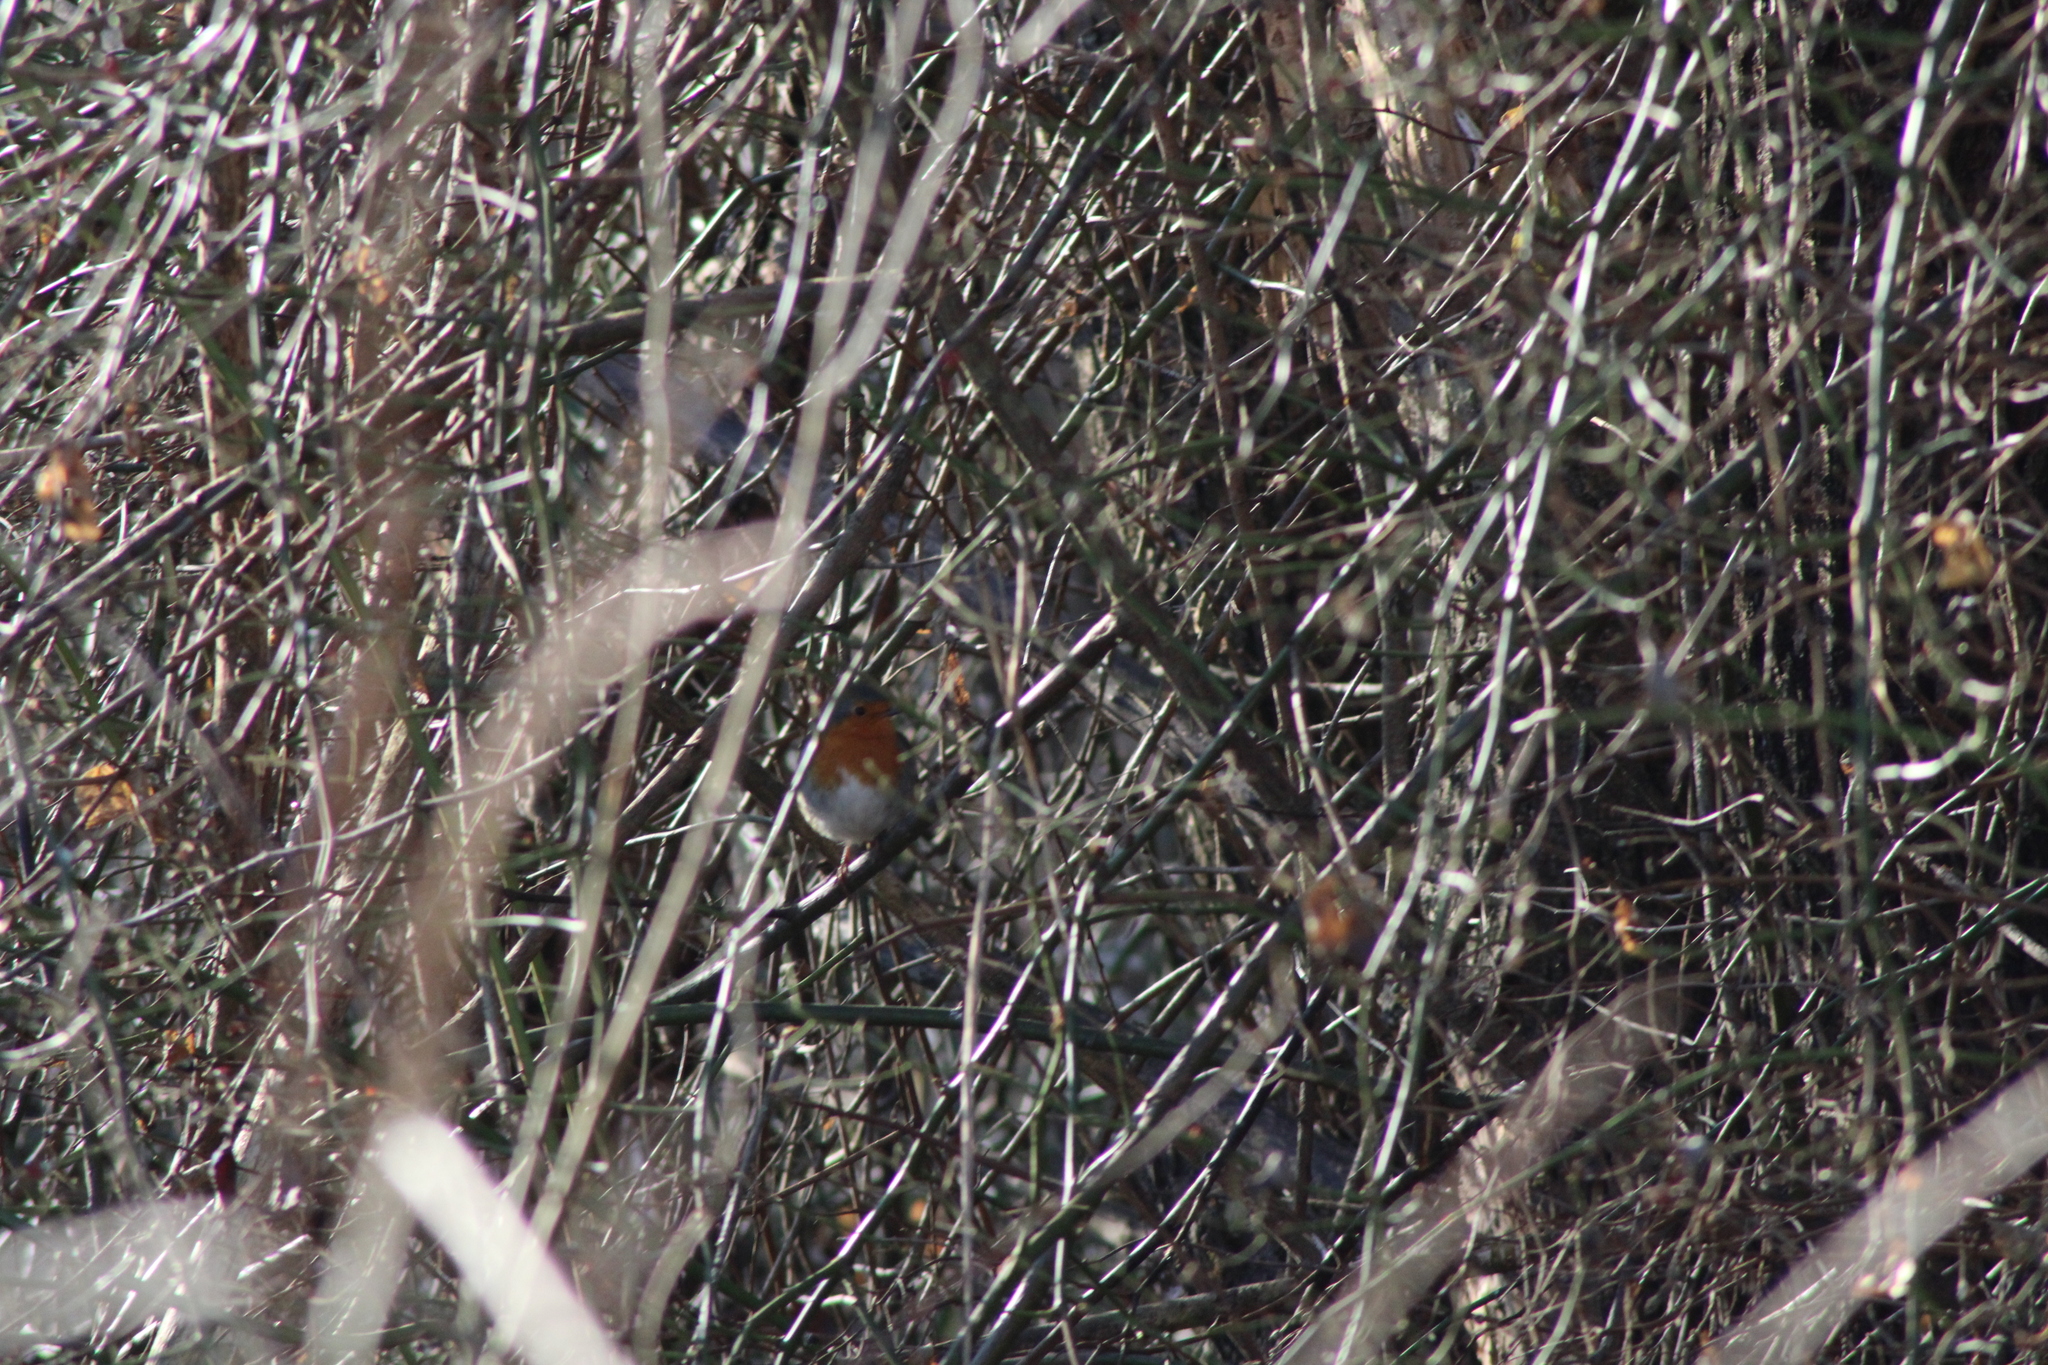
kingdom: Animalia
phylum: Chordata
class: Aves
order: Passeriformes
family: Muscicapidae
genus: Erithacus
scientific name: Erithacus rubecula
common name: European robin
